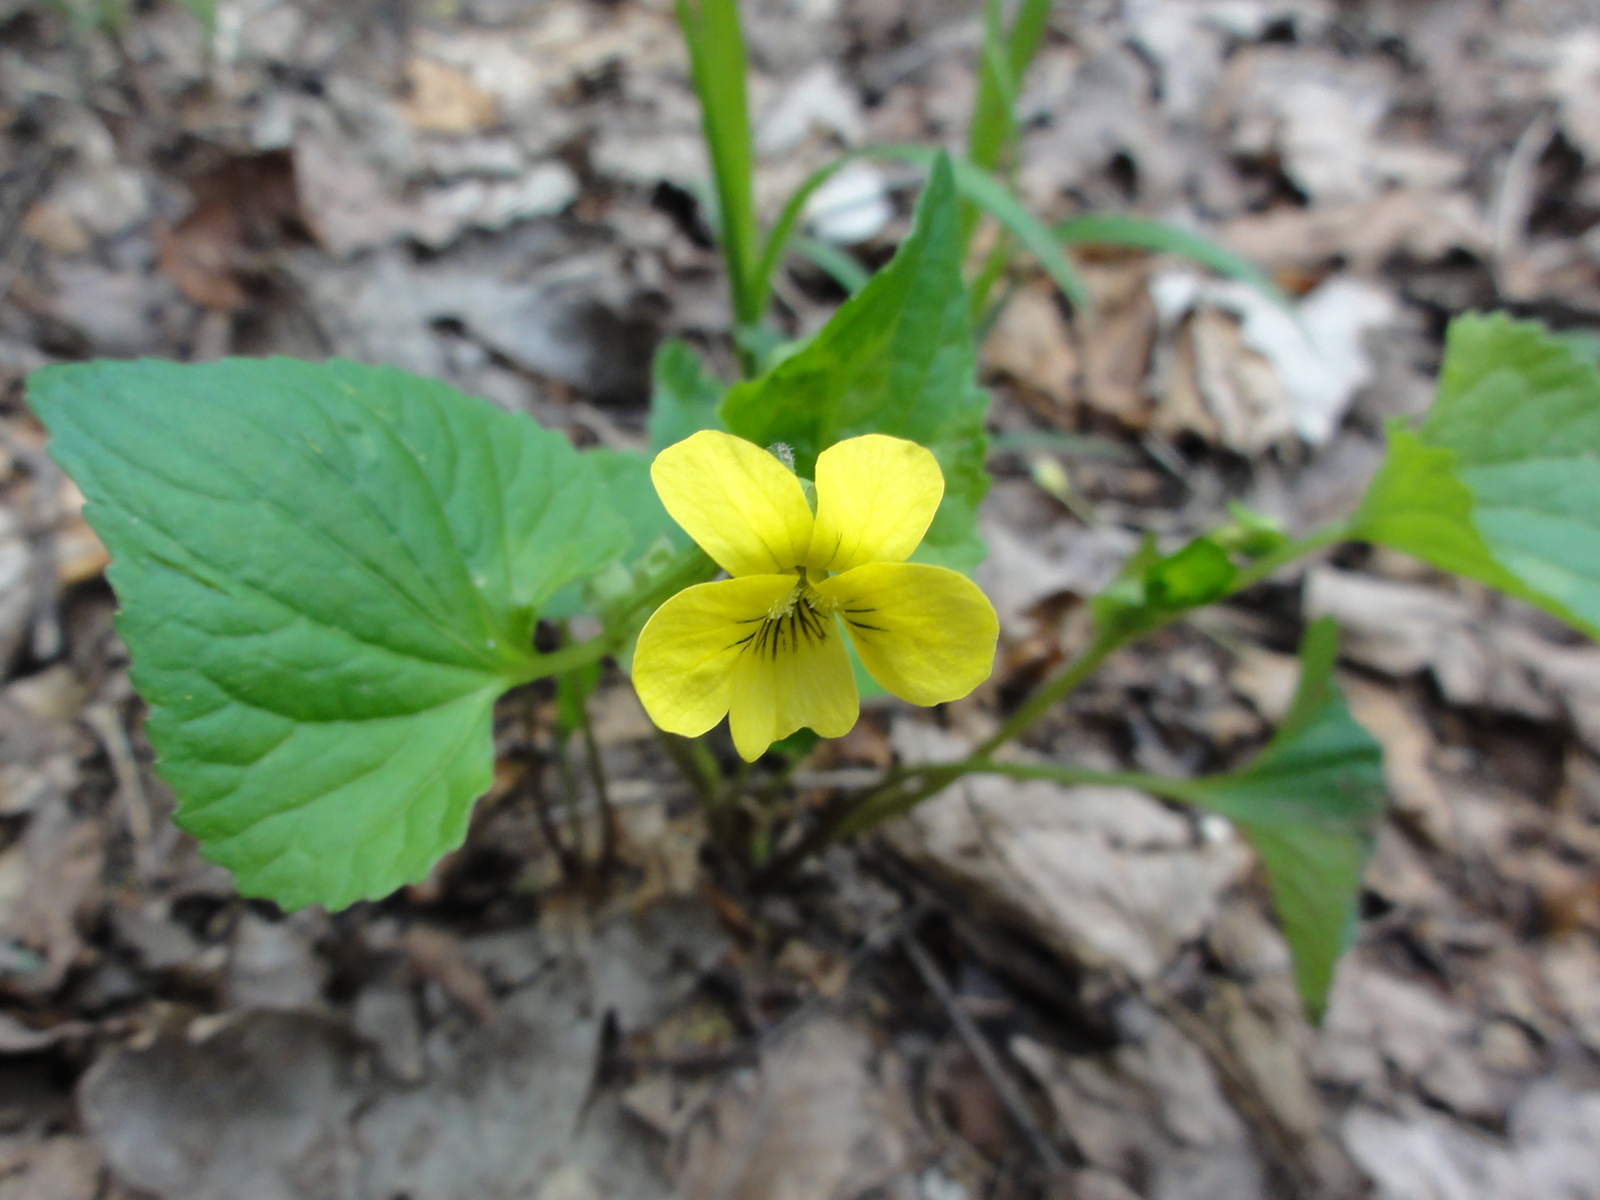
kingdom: Plantae
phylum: Tracheophyta
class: Magnoliopsida
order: Malpighiales
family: Violaceae
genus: Viola
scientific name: Viola eriocarpa
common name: Smooth yellow violet
